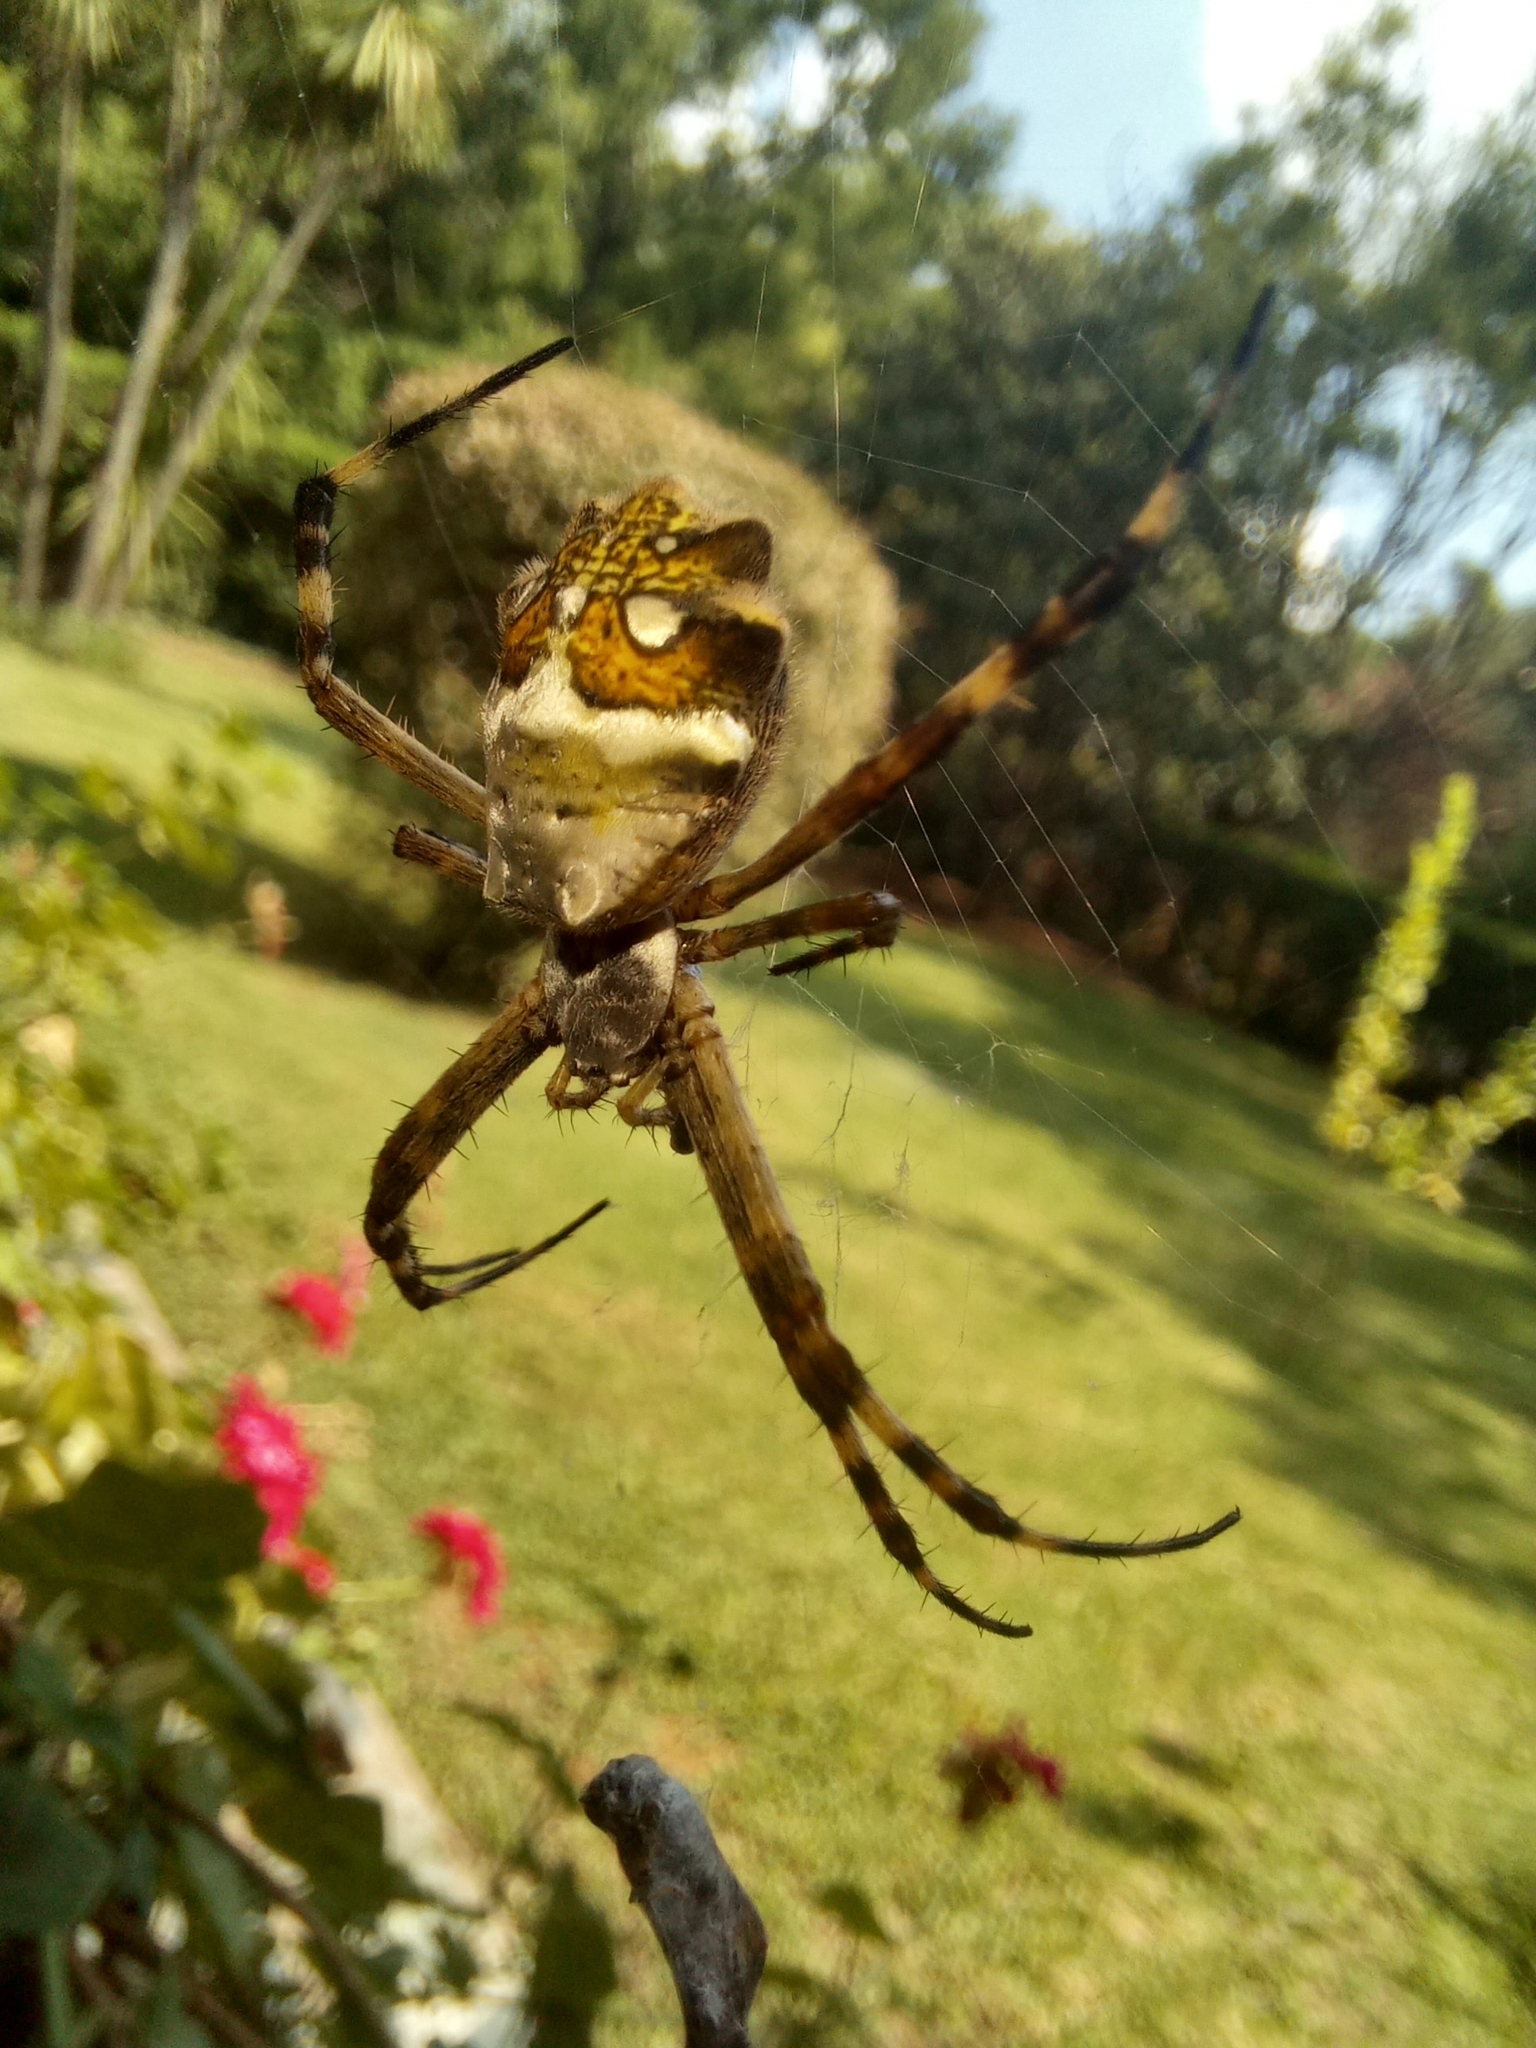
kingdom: Animalia
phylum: Arthropoda
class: Arachnida
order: Araneae
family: Araneidae
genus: Argiope
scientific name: Argiope argentata
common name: Orb weavers
